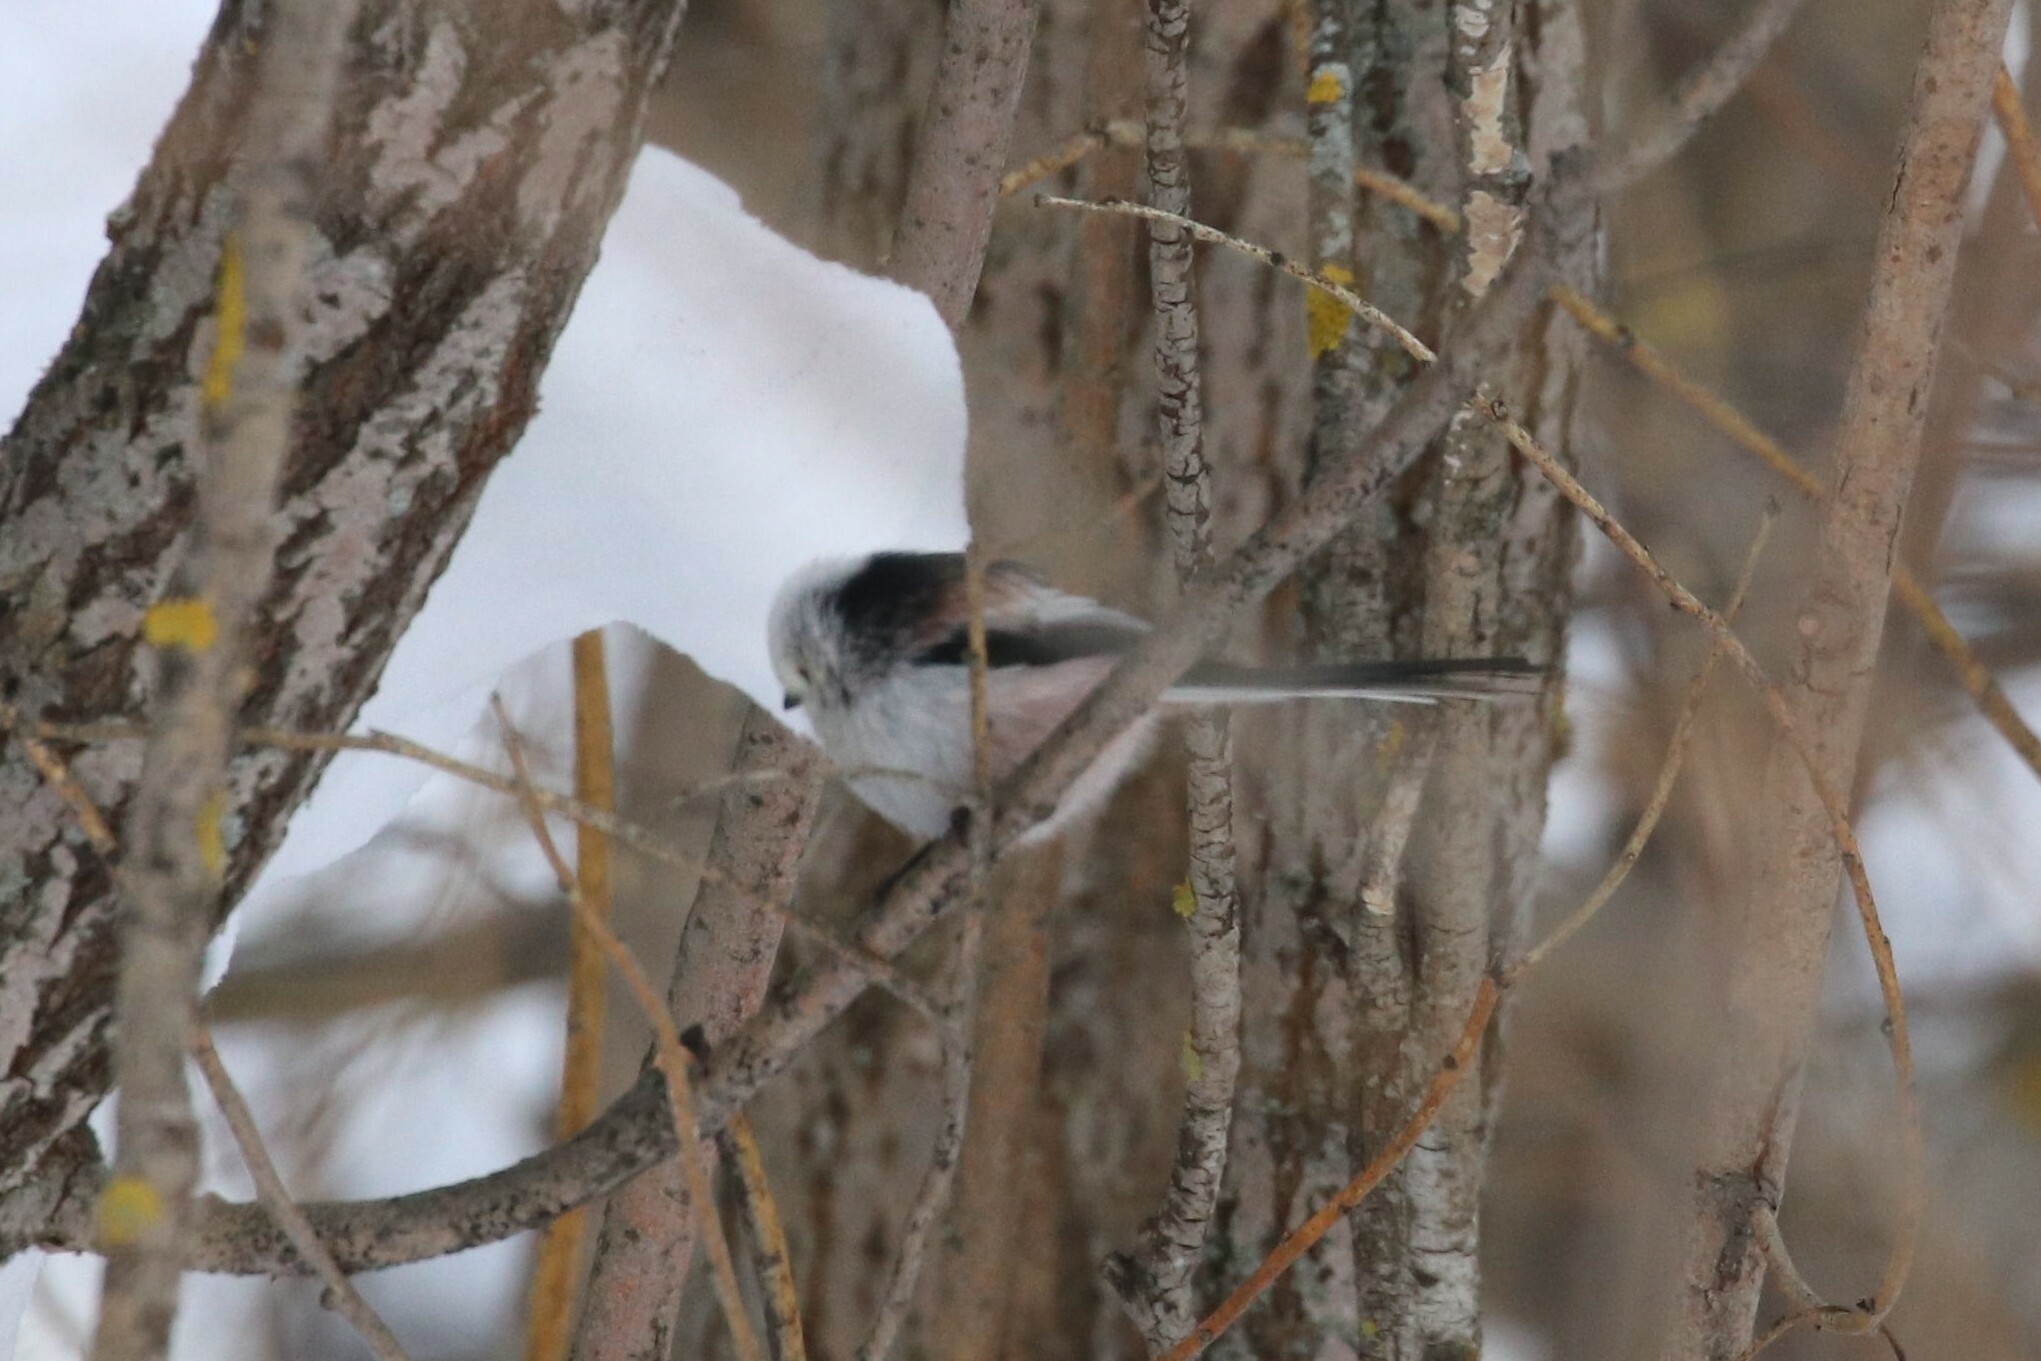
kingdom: Animalia
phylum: Chordata
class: Aves
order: Passeriformes
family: Aegithalidae
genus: Aegithalos
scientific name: Aegithalos caudatus
